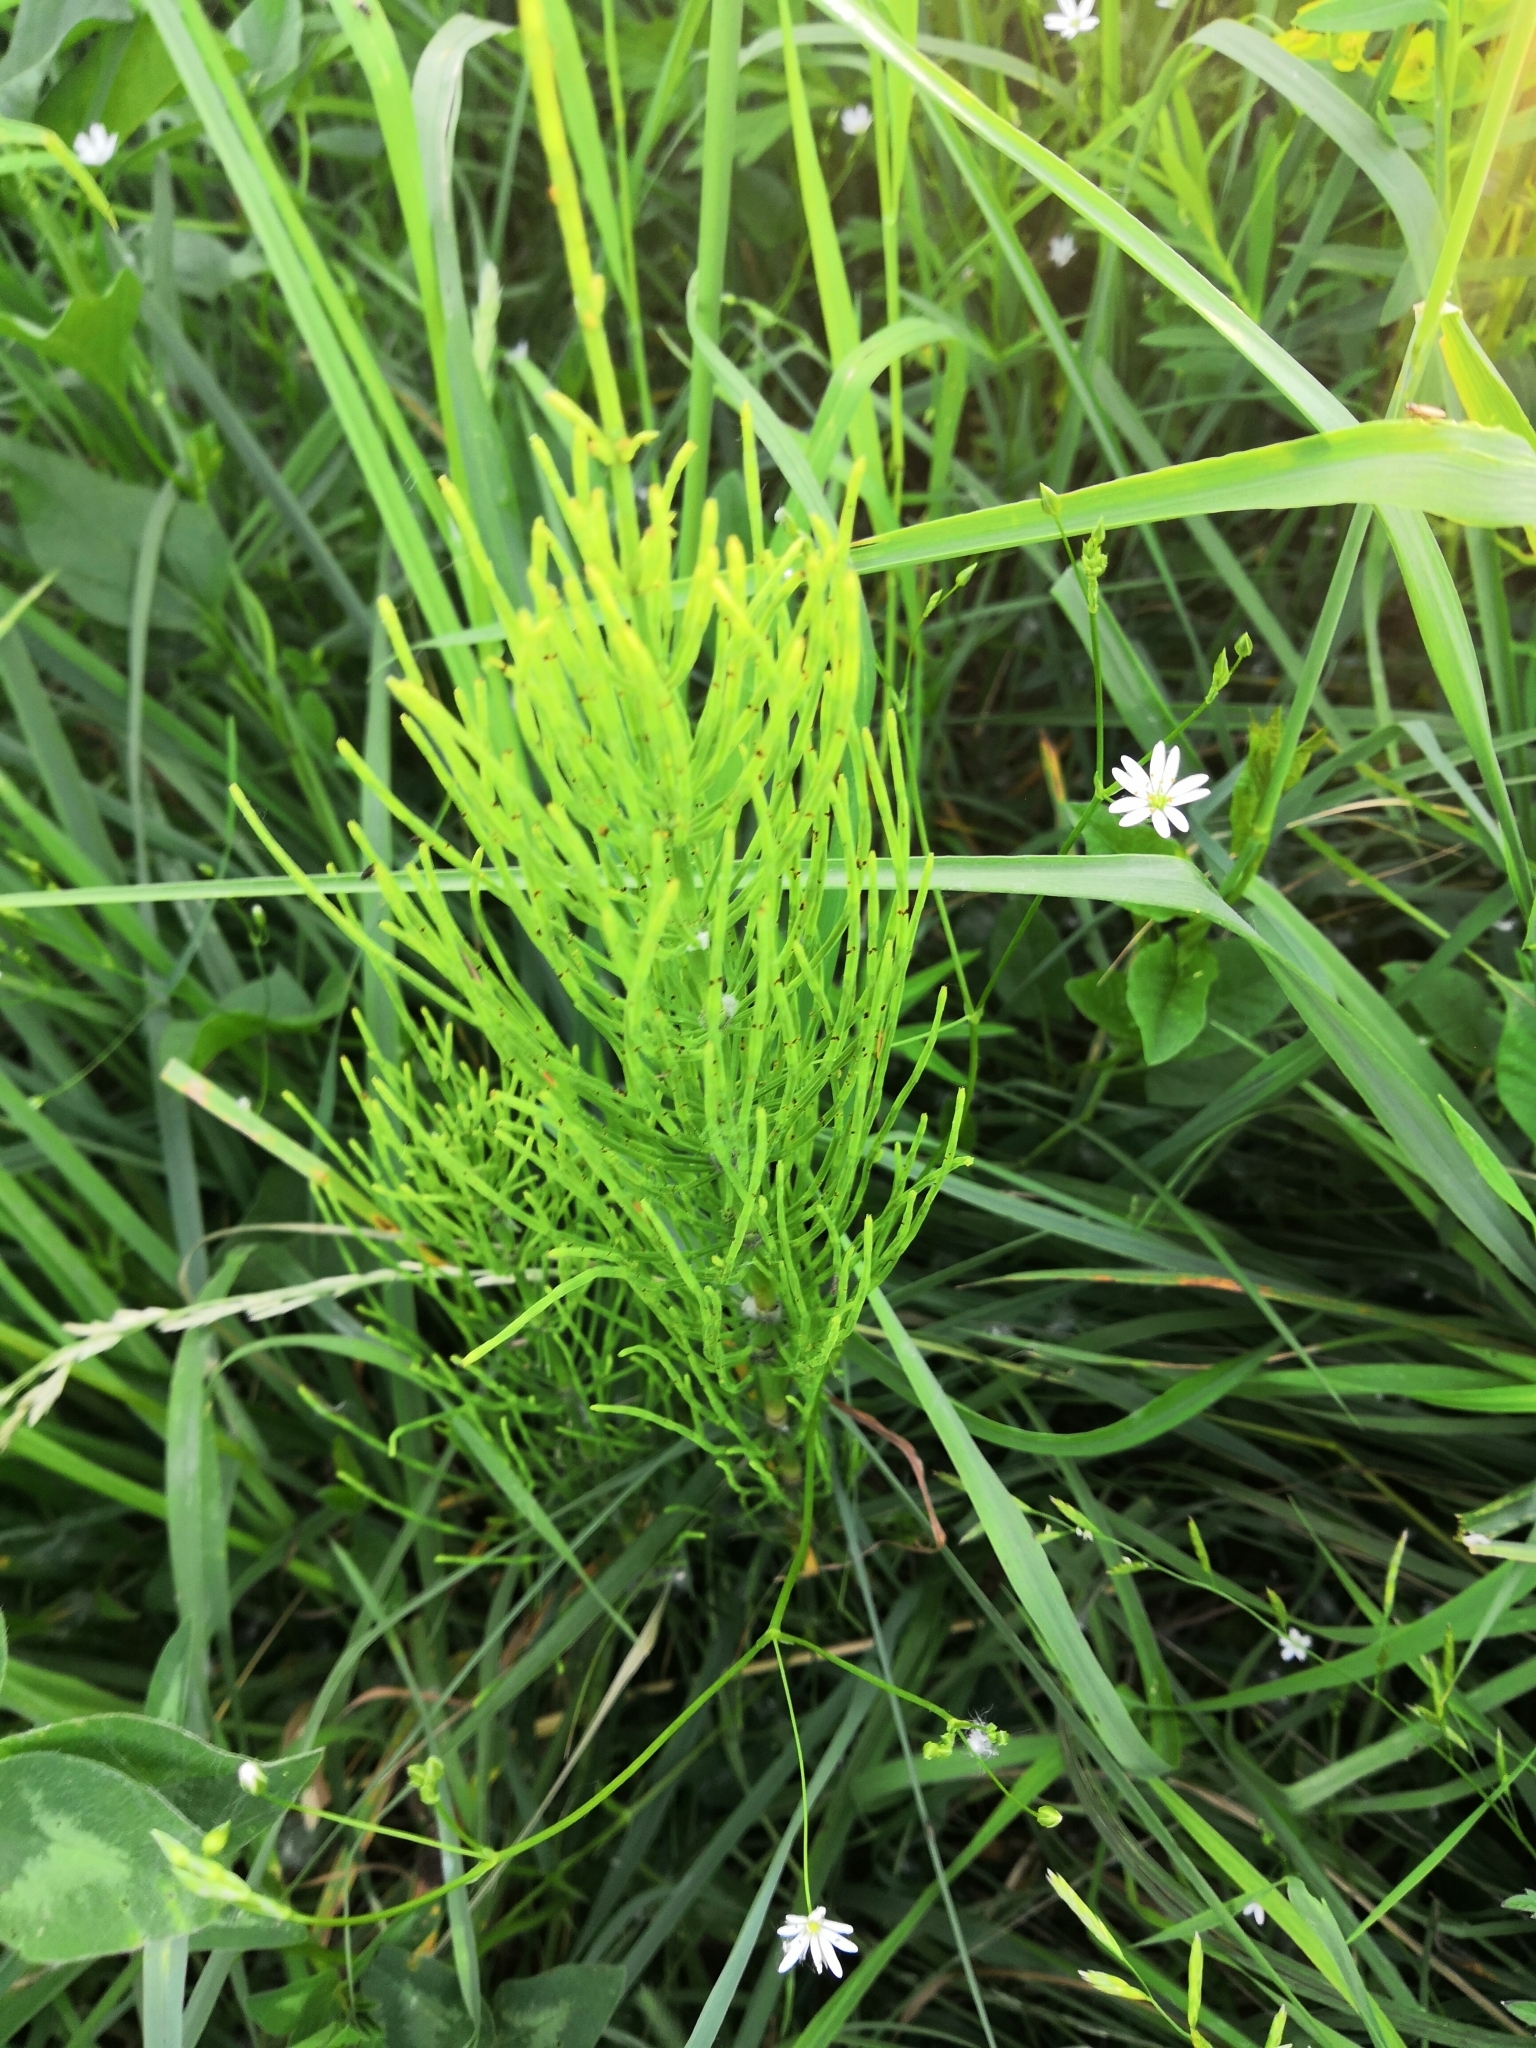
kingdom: Plantae
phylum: Tracheophyta
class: Polypodiopsida
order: Equisetales
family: Equisetaceae
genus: Equisetum
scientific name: Equisetum arvense
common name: Field horsetail
